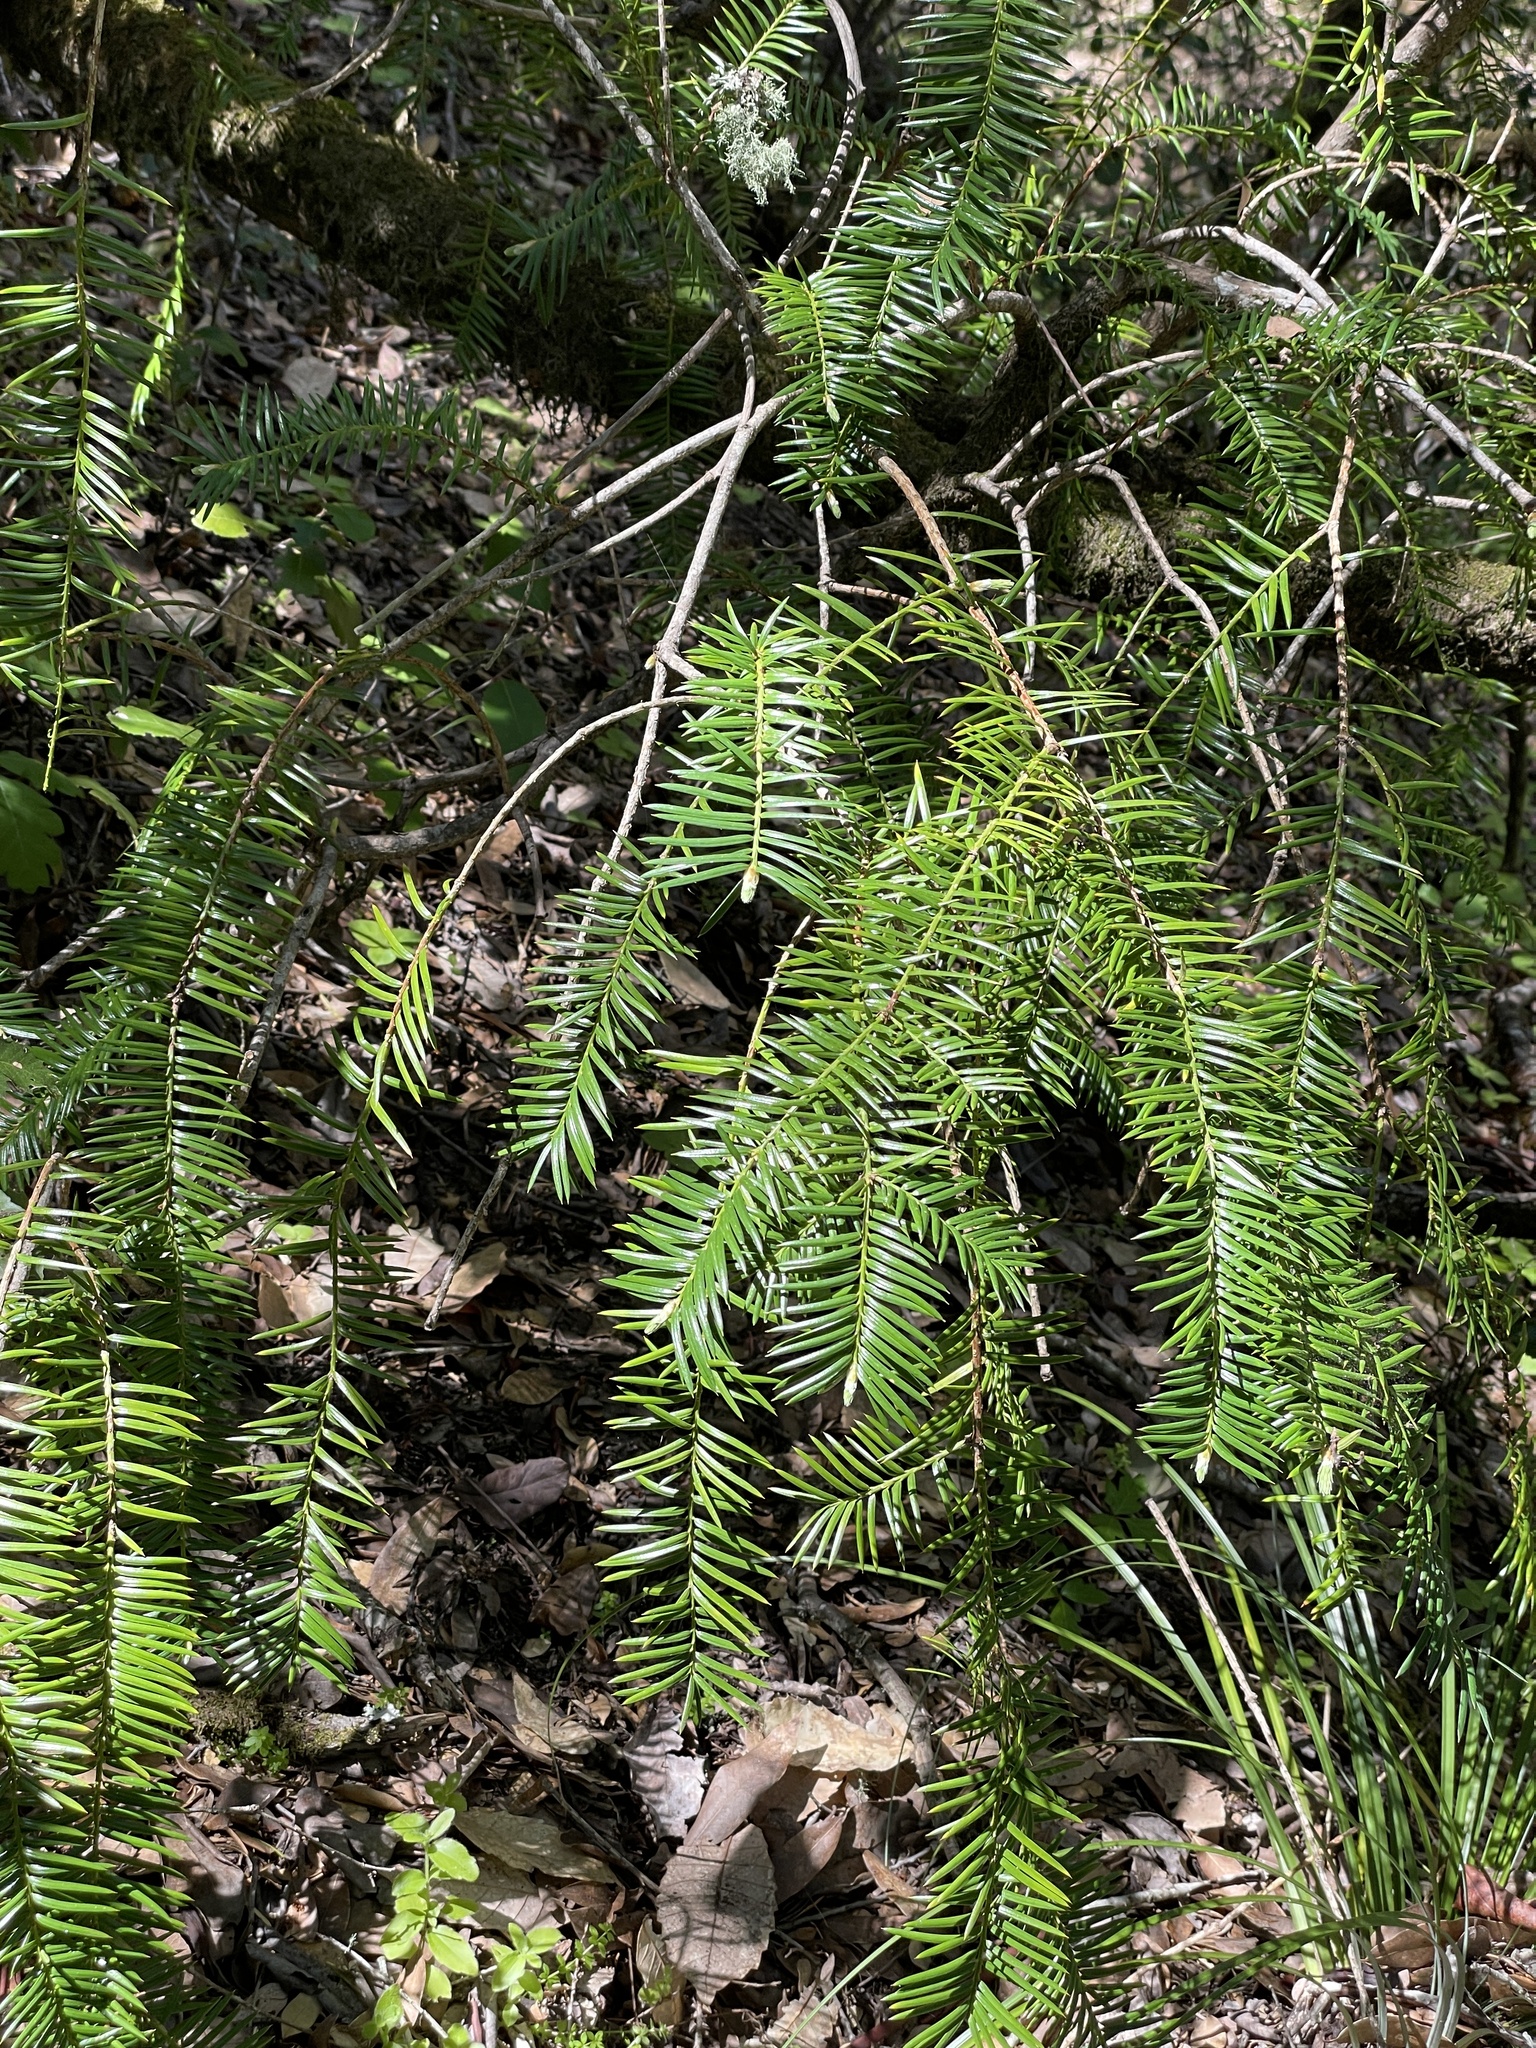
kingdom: Plantae
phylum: Tracheophyta
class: Pinopsida
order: Pinales
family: Taxaceae
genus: Torreya
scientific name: Torreya californica
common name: California torreya
